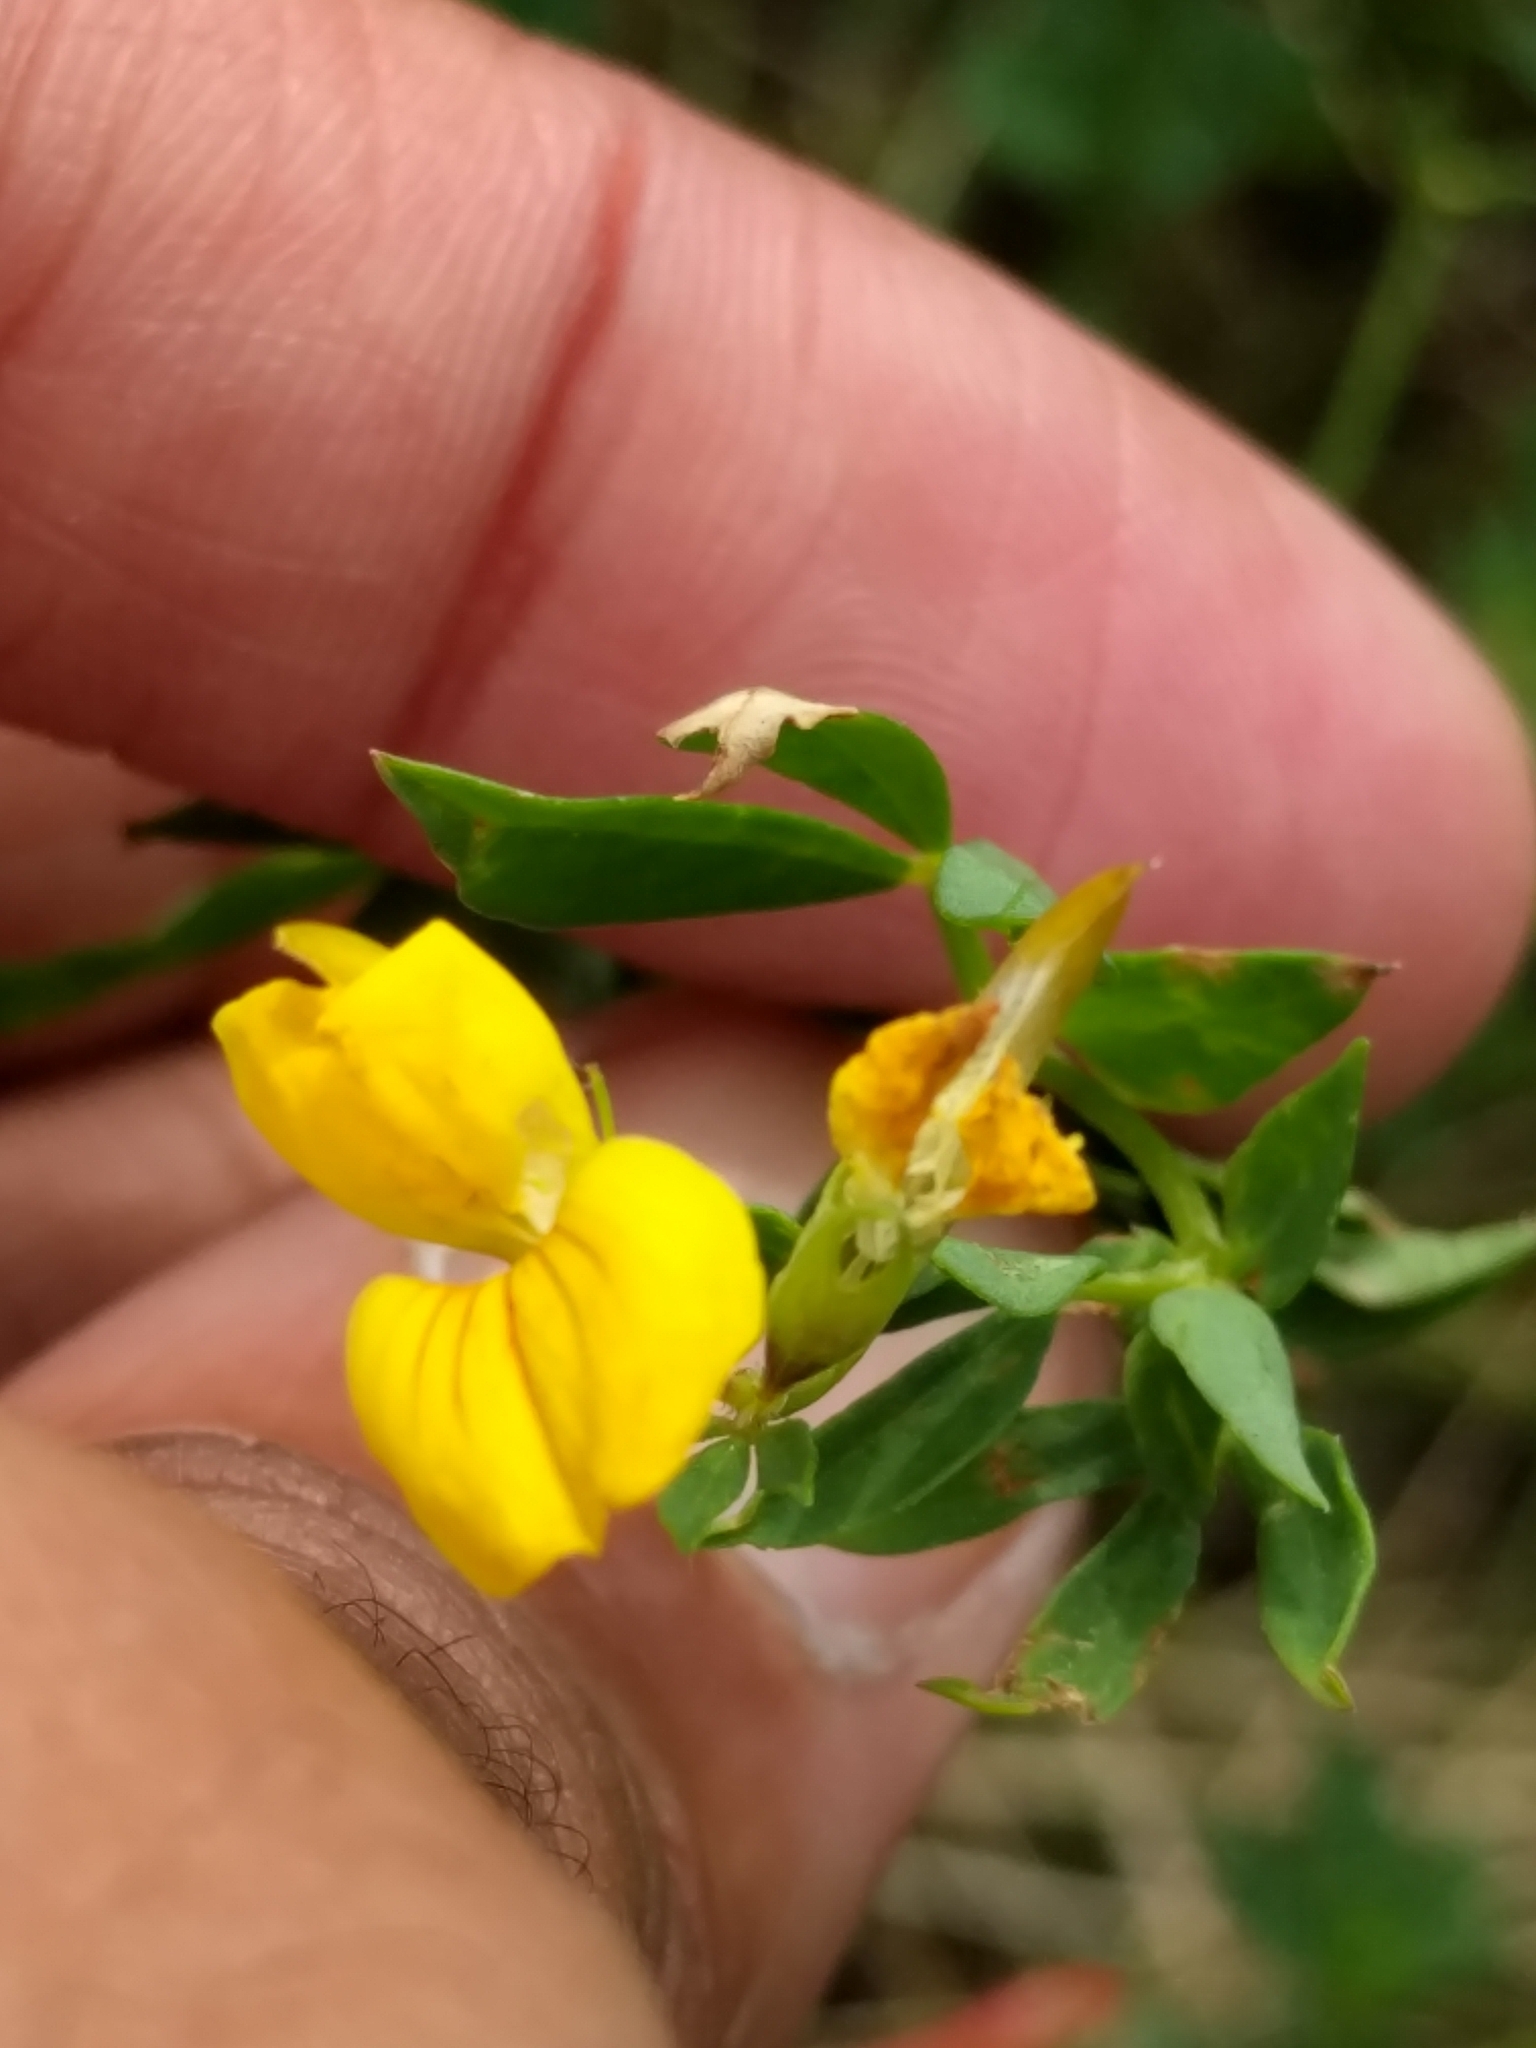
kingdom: Plantae
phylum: Tracheophyta
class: Magnoliopsida
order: Fabales
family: Fabaceae
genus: Lotus
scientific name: Lotus tenuis
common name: Narrow-leaved bird's-foot-trefoil
